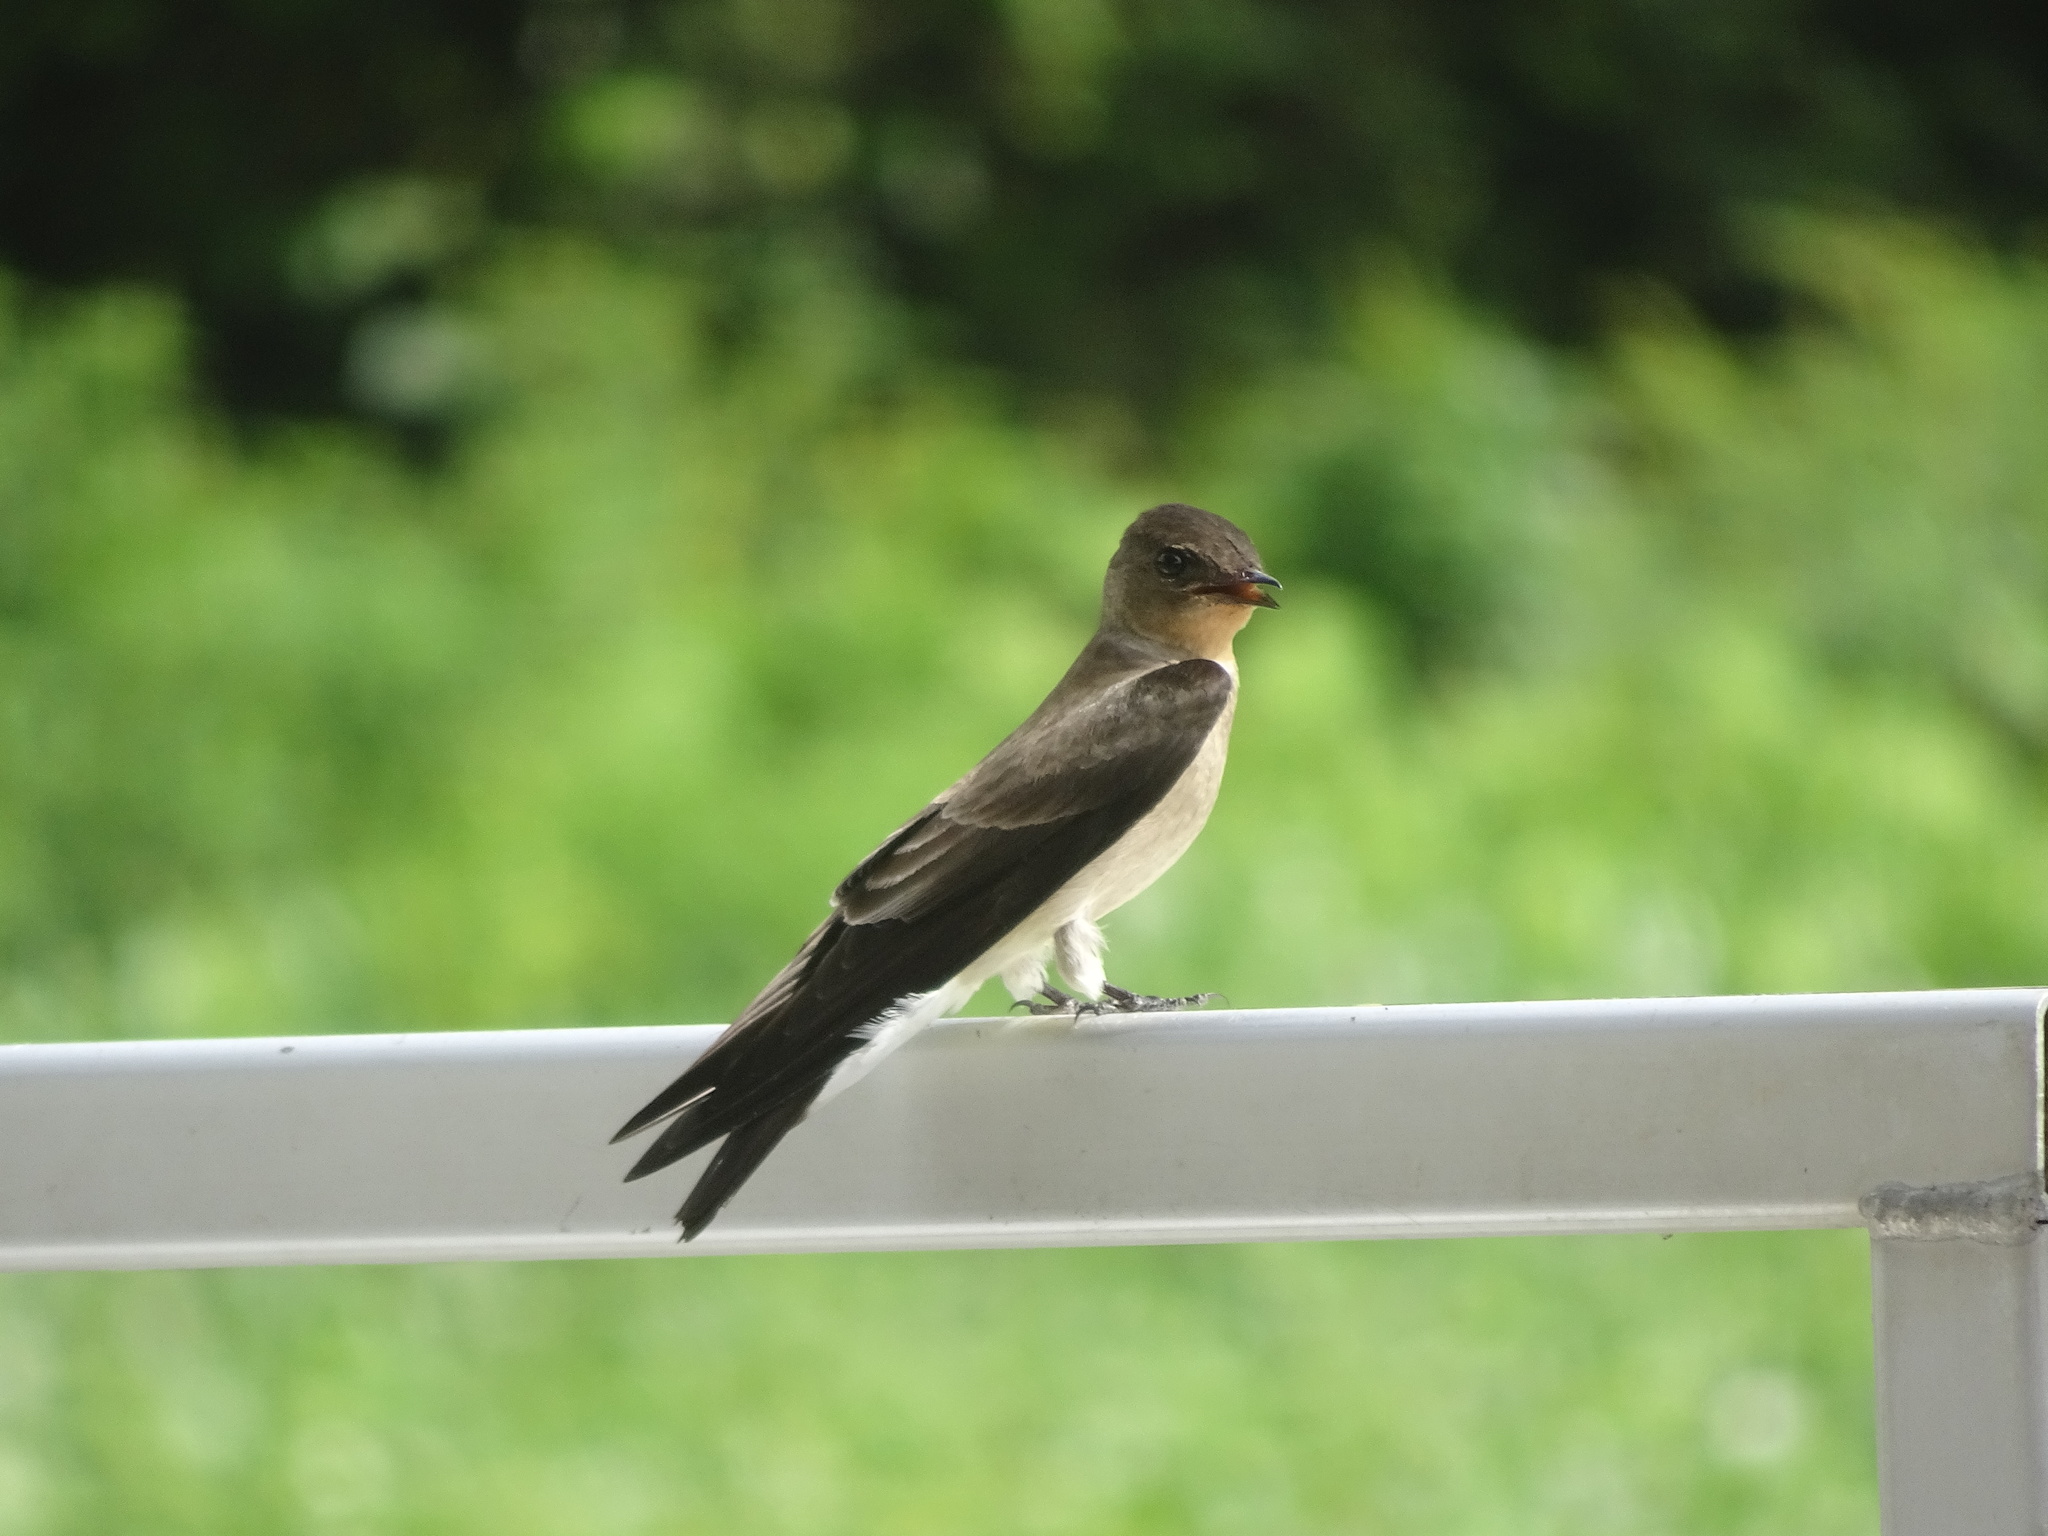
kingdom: Animalia
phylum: Chordata
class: Aves
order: Passeriformes
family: Hirundinidae
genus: Stelgidopteryx
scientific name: Stelgidopteryx ruficollis
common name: Southern rough-winged swallow
